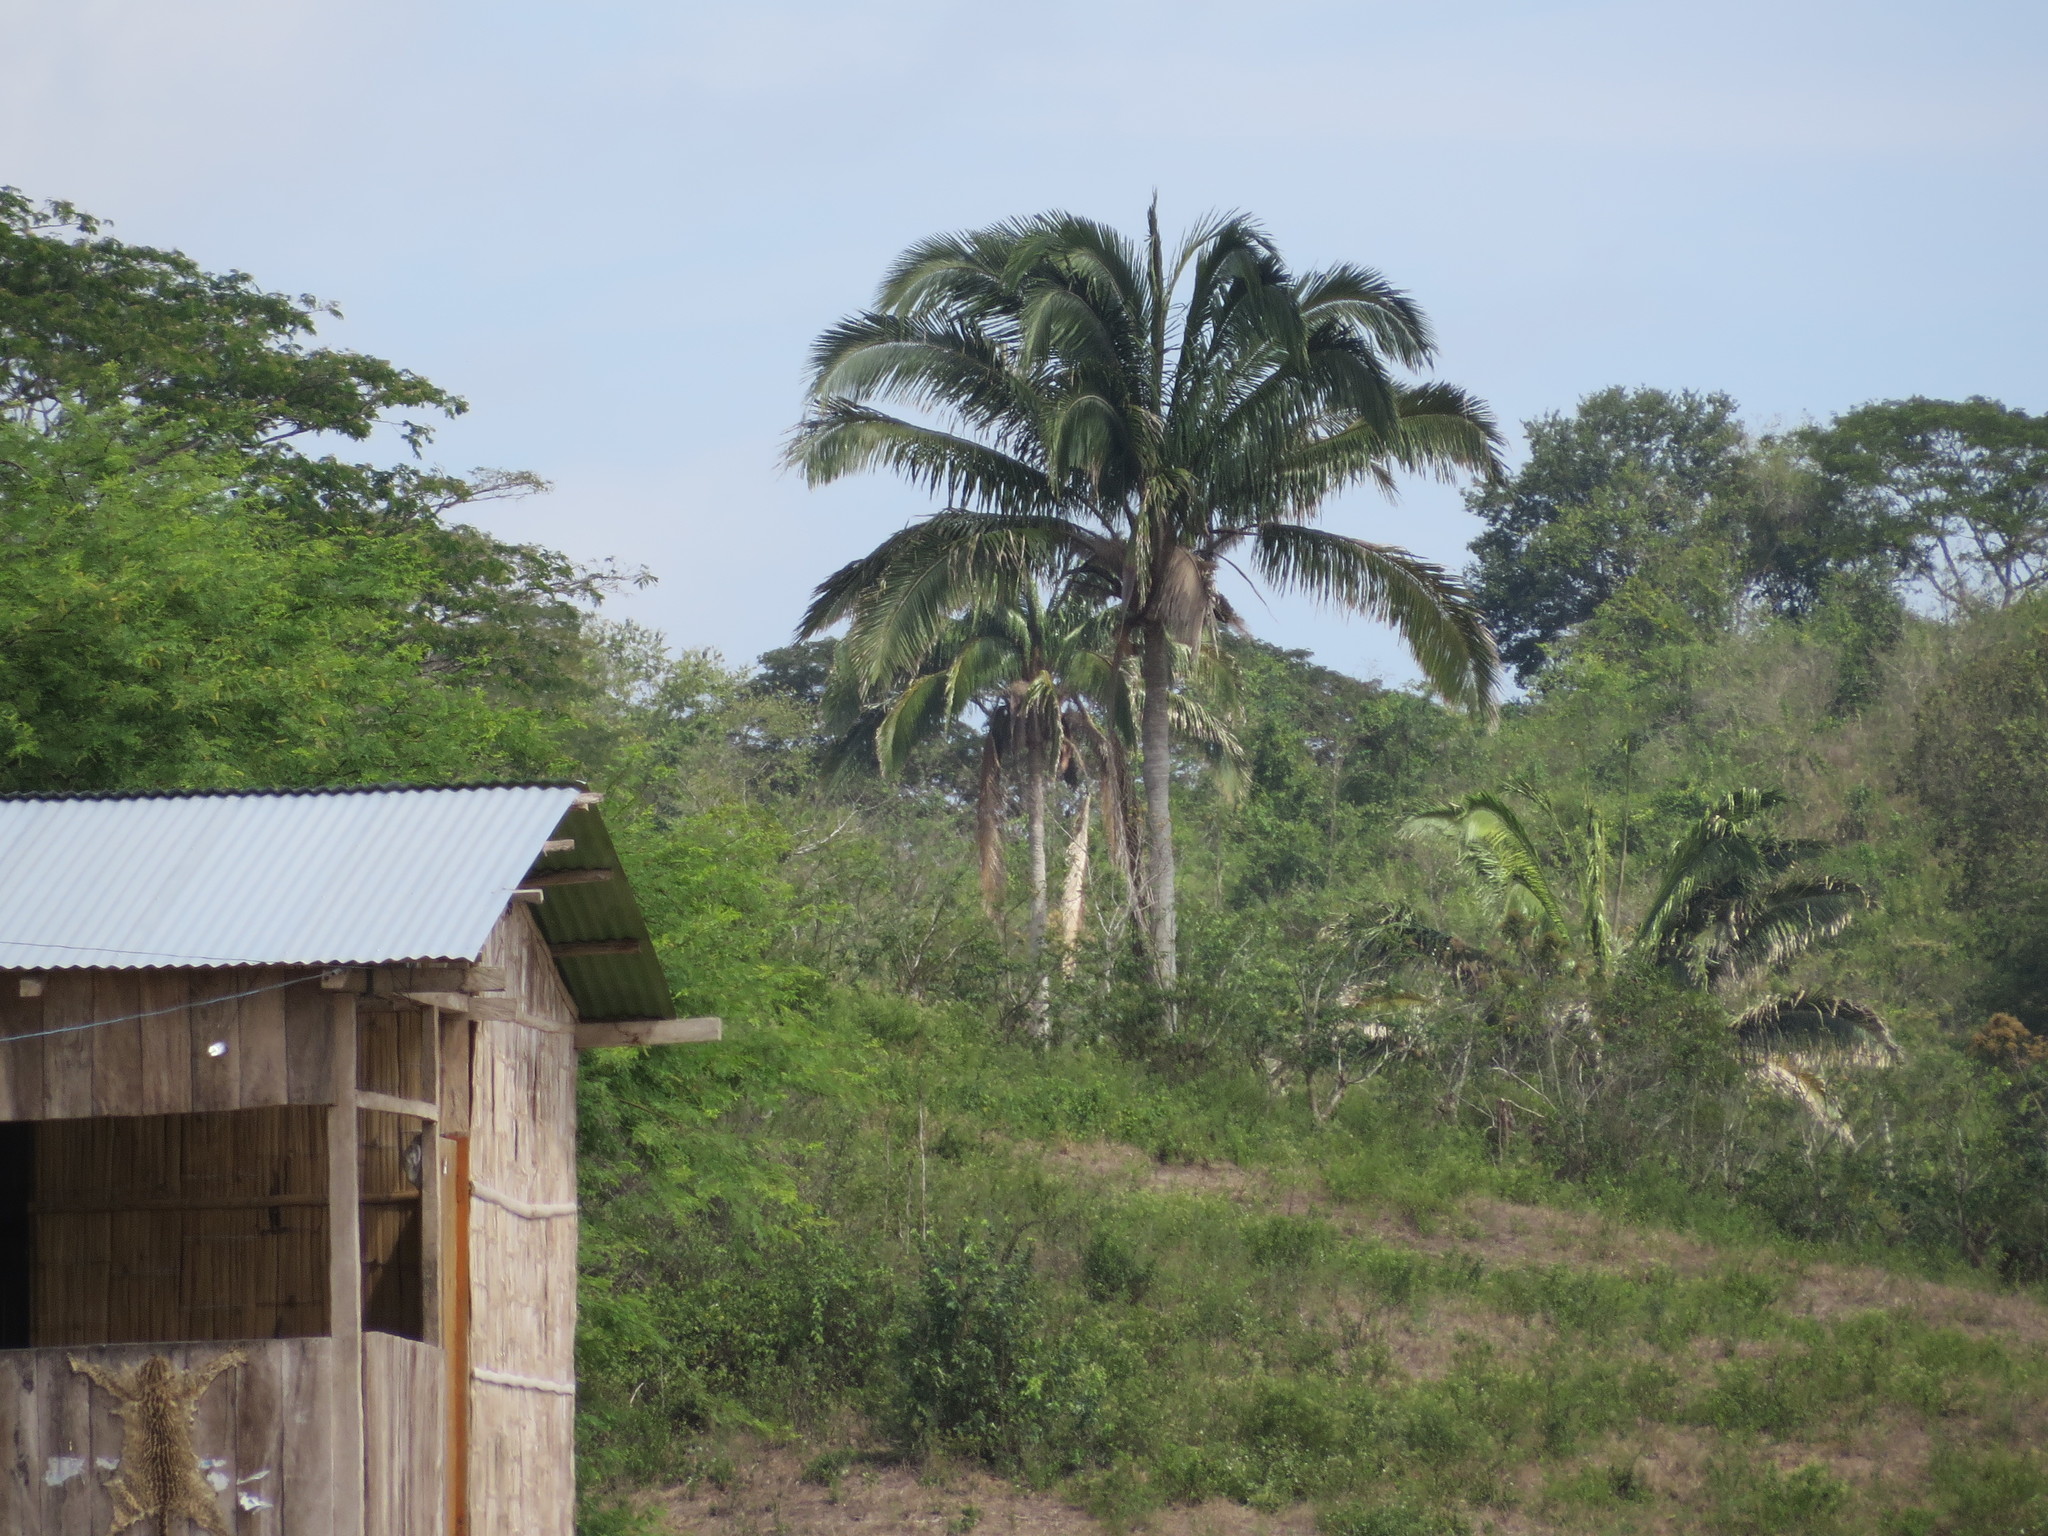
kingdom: Plantae
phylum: Tracheophyta
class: Liliopsida
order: Arecales
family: Arecaceae
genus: Attalea
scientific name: Attalea colenda
